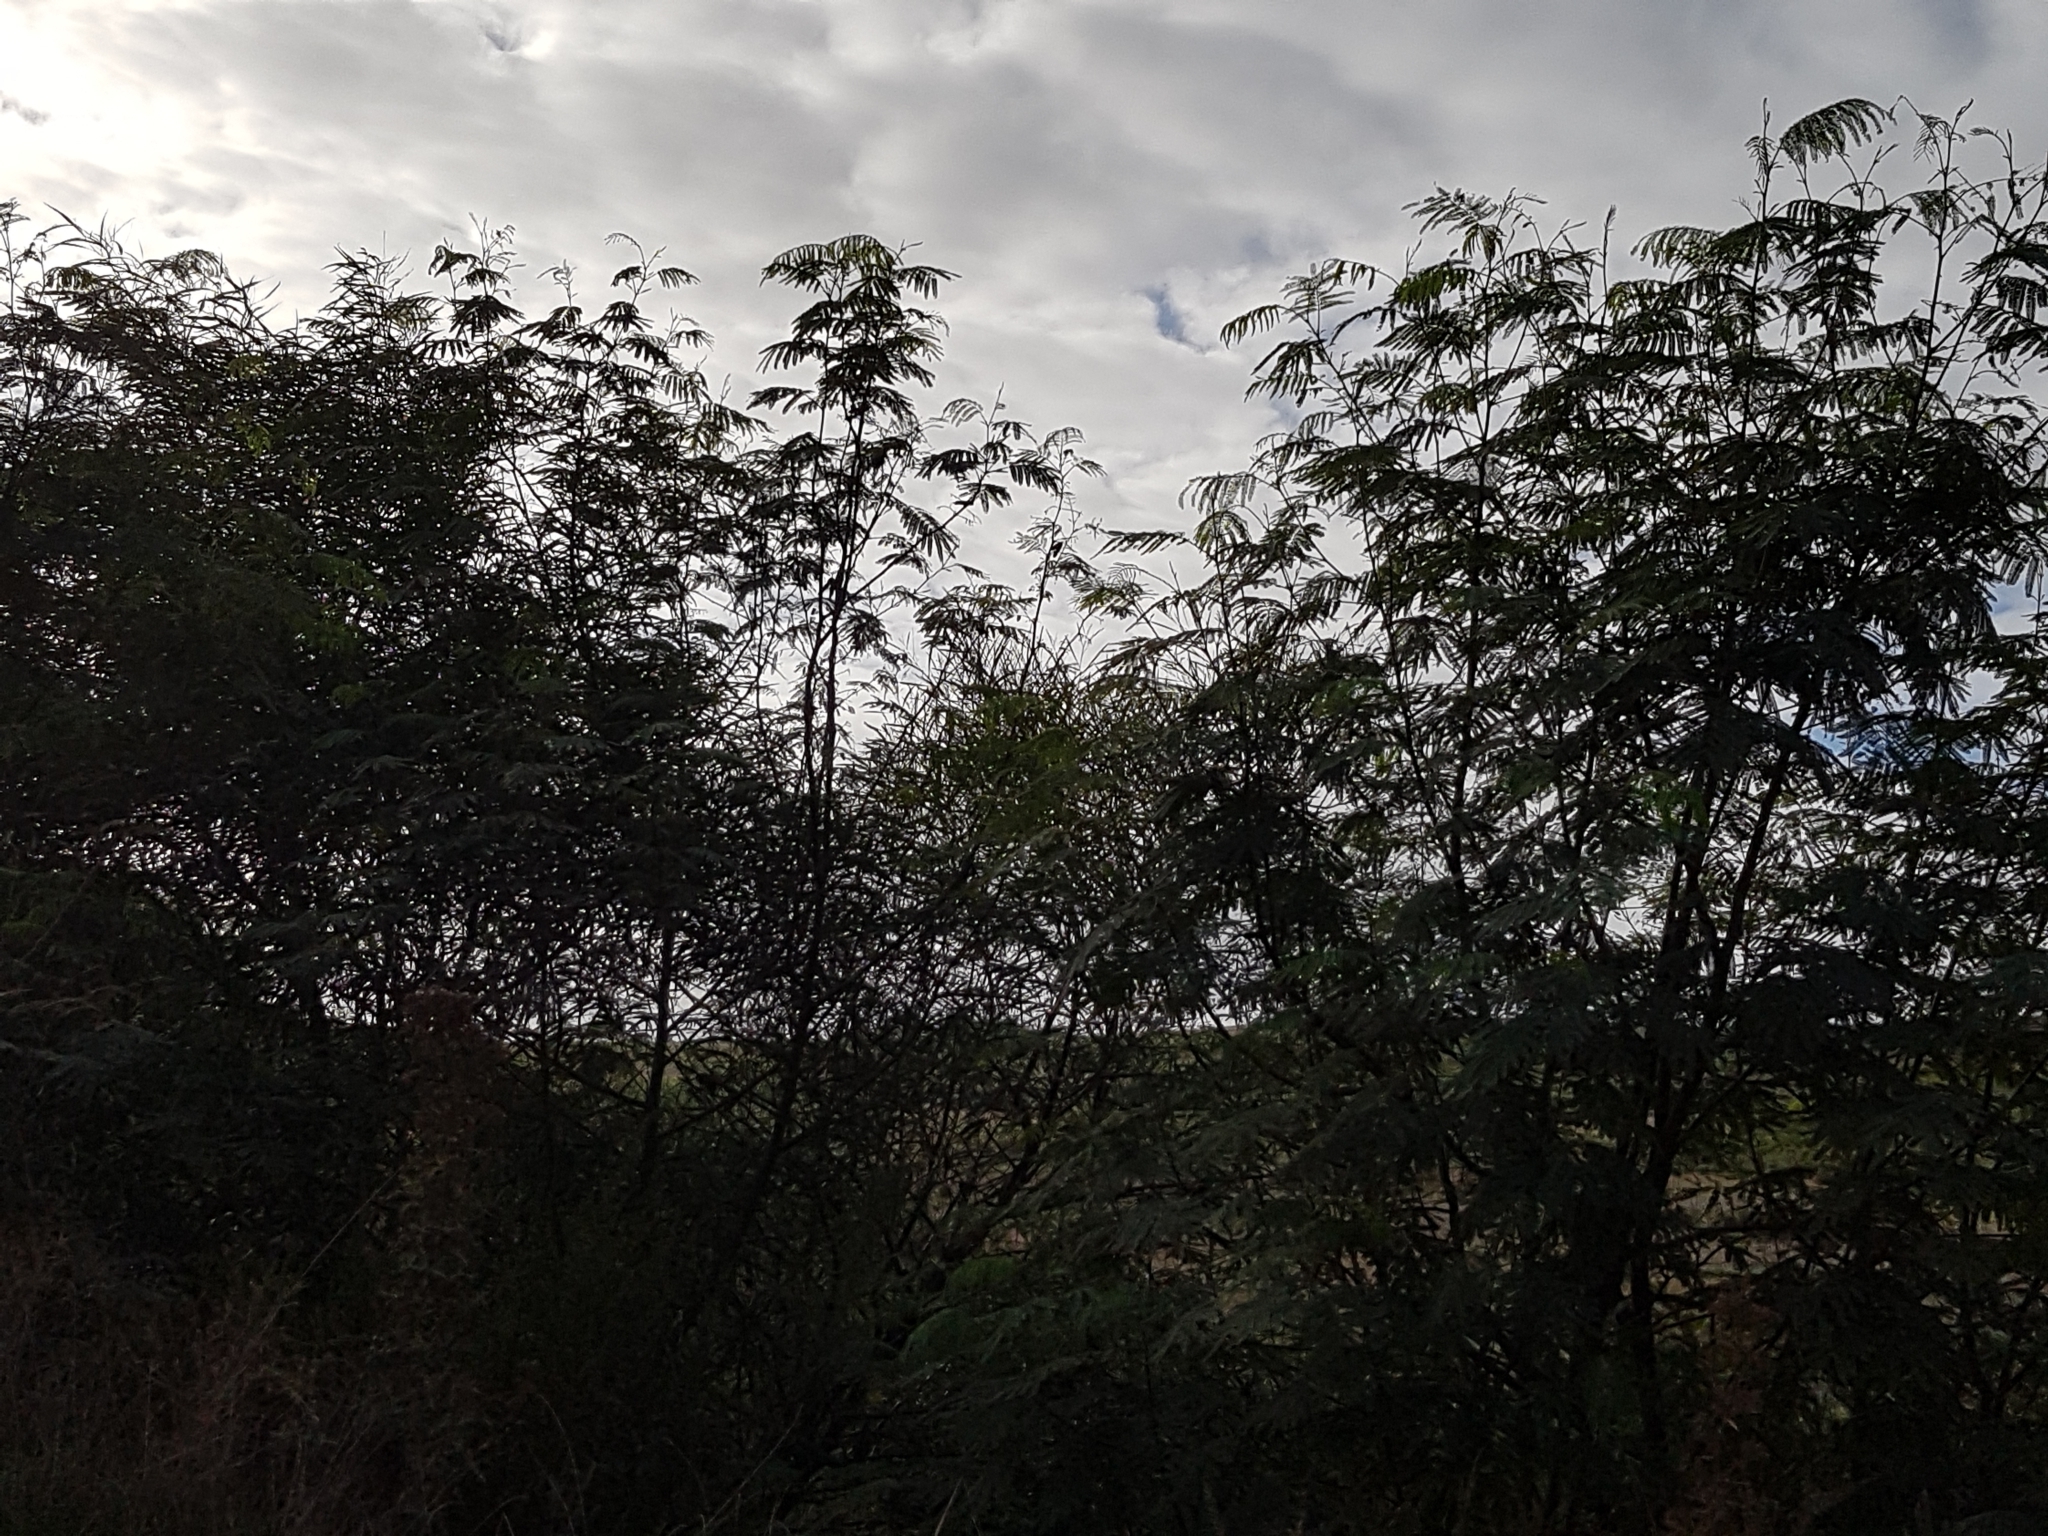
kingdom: Plantae
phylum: Tracheophyta
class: Magnoliopsida
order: Fabales
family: Fabaceae
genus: Paraserianthes
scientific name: Paraserianthes lophantha
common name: Plume albizia
